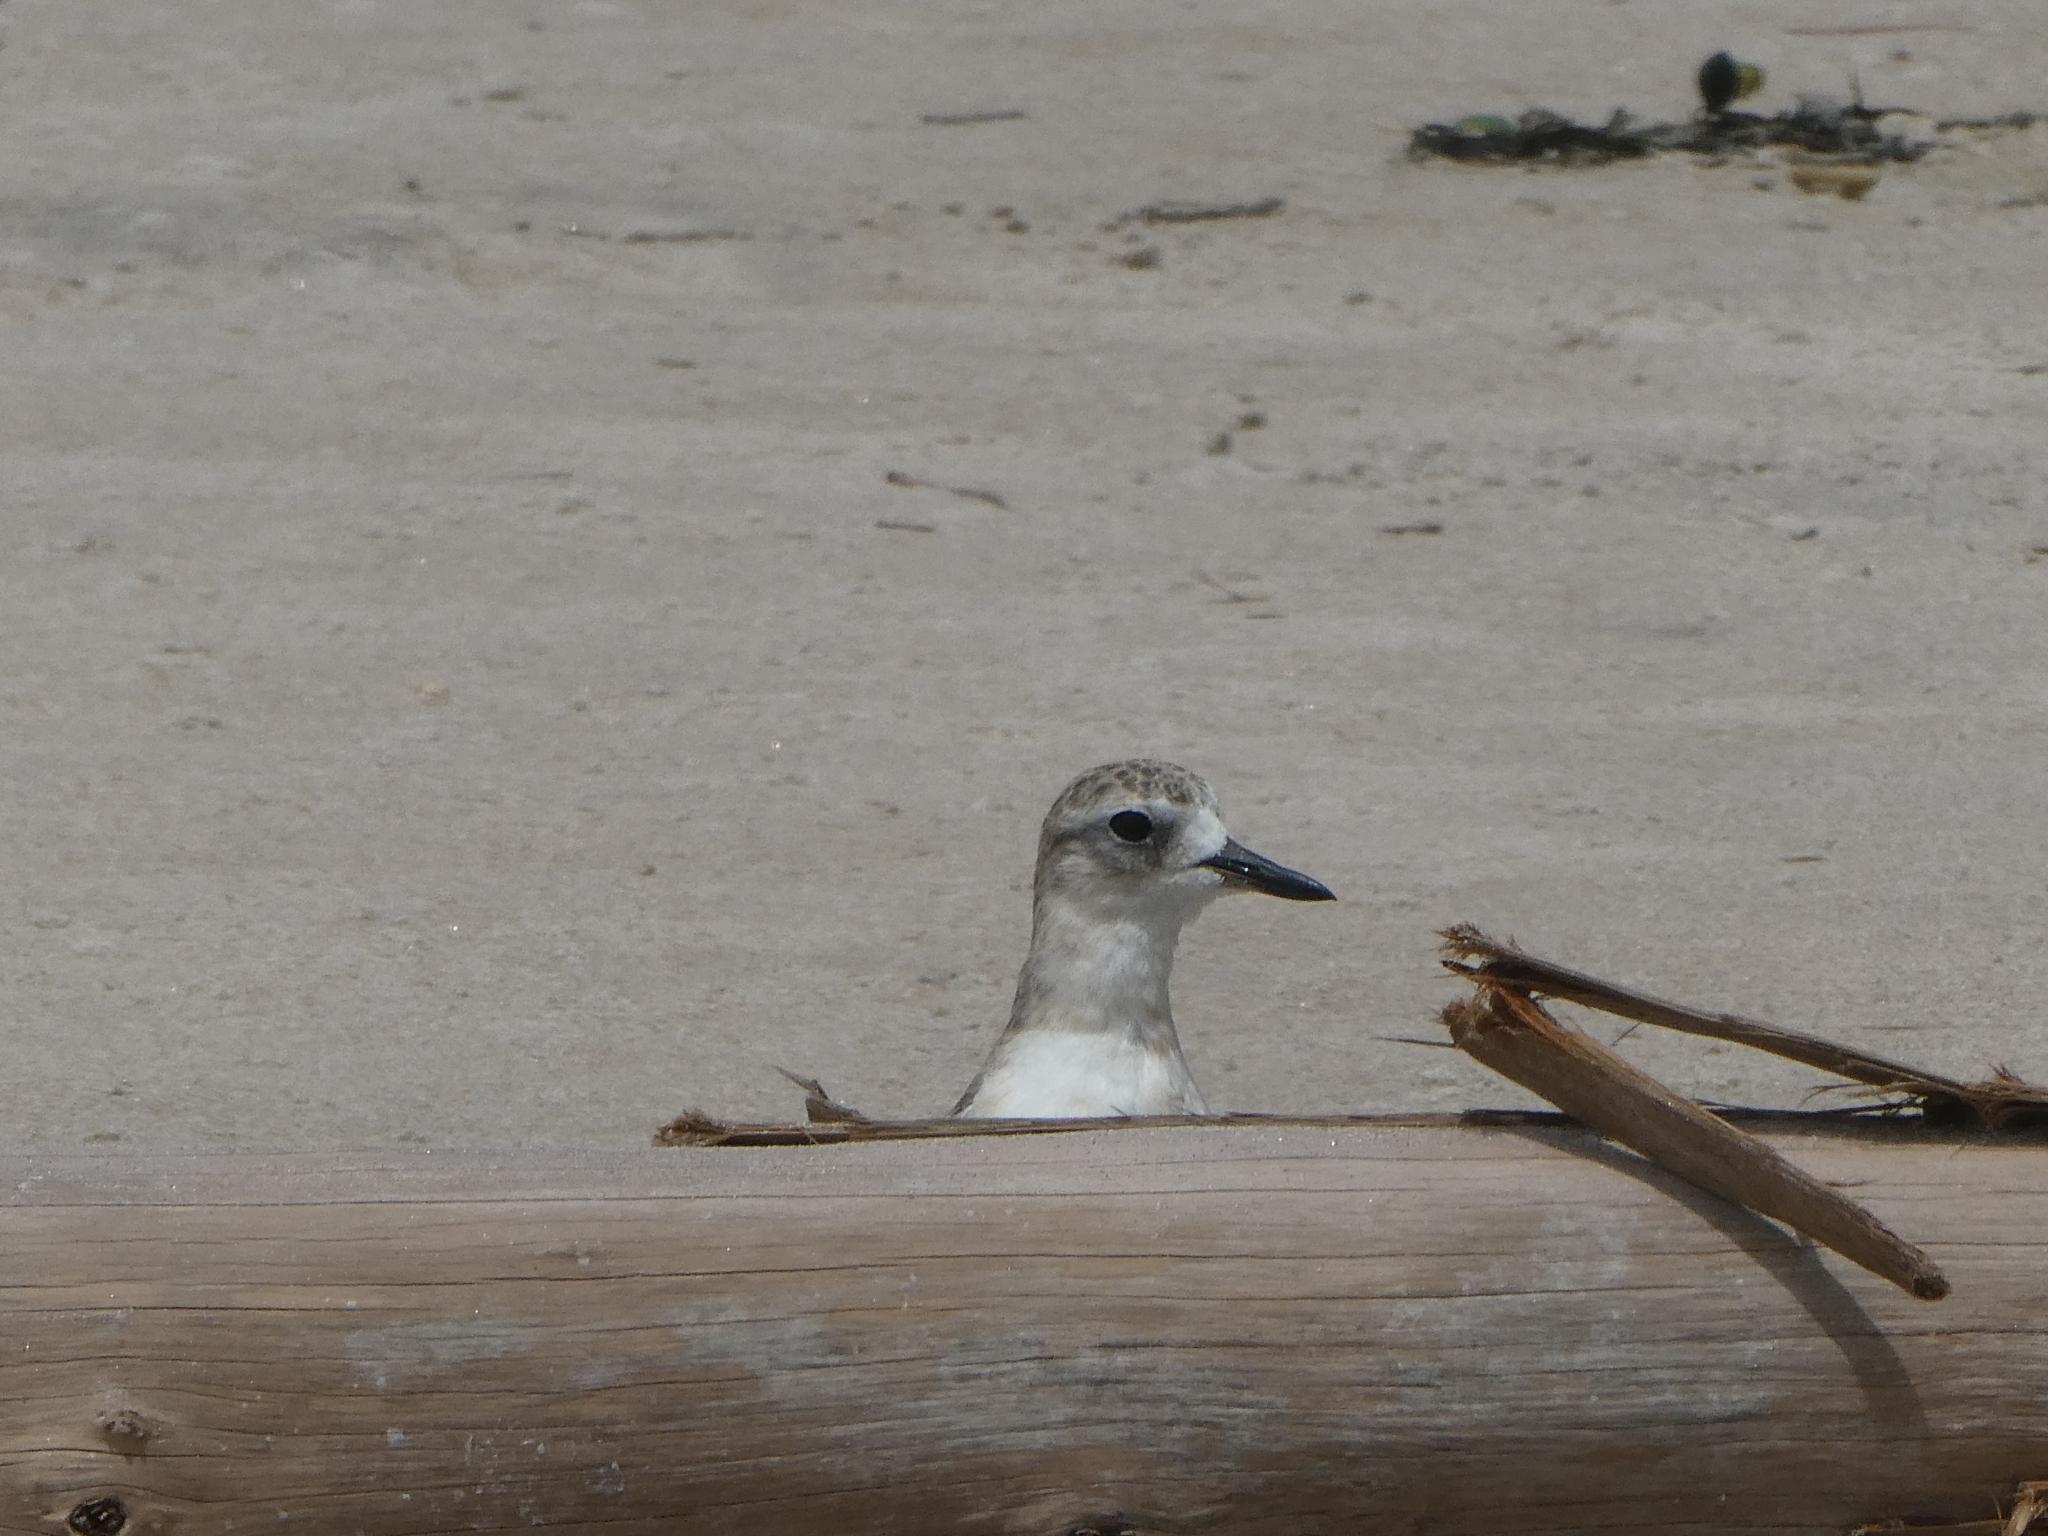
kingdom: Animalia
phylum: Chordata
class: Aves
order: Charadriiformes
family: Charadriidae
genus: Anarhynchus
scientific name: Anarhynchus
